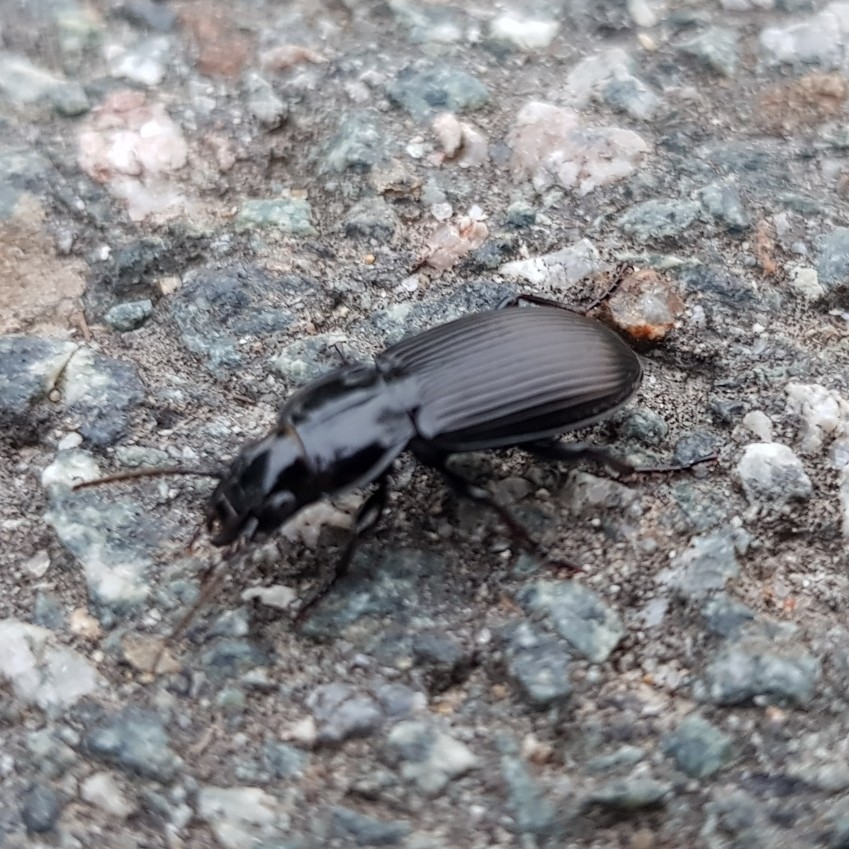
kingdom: Animalia
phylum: Arthropoda
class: Insecta
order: Coleoptera
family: Carabidae
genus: Pterostichus
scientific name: Pterostichus melanarius
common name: European dark harp ground beetle
